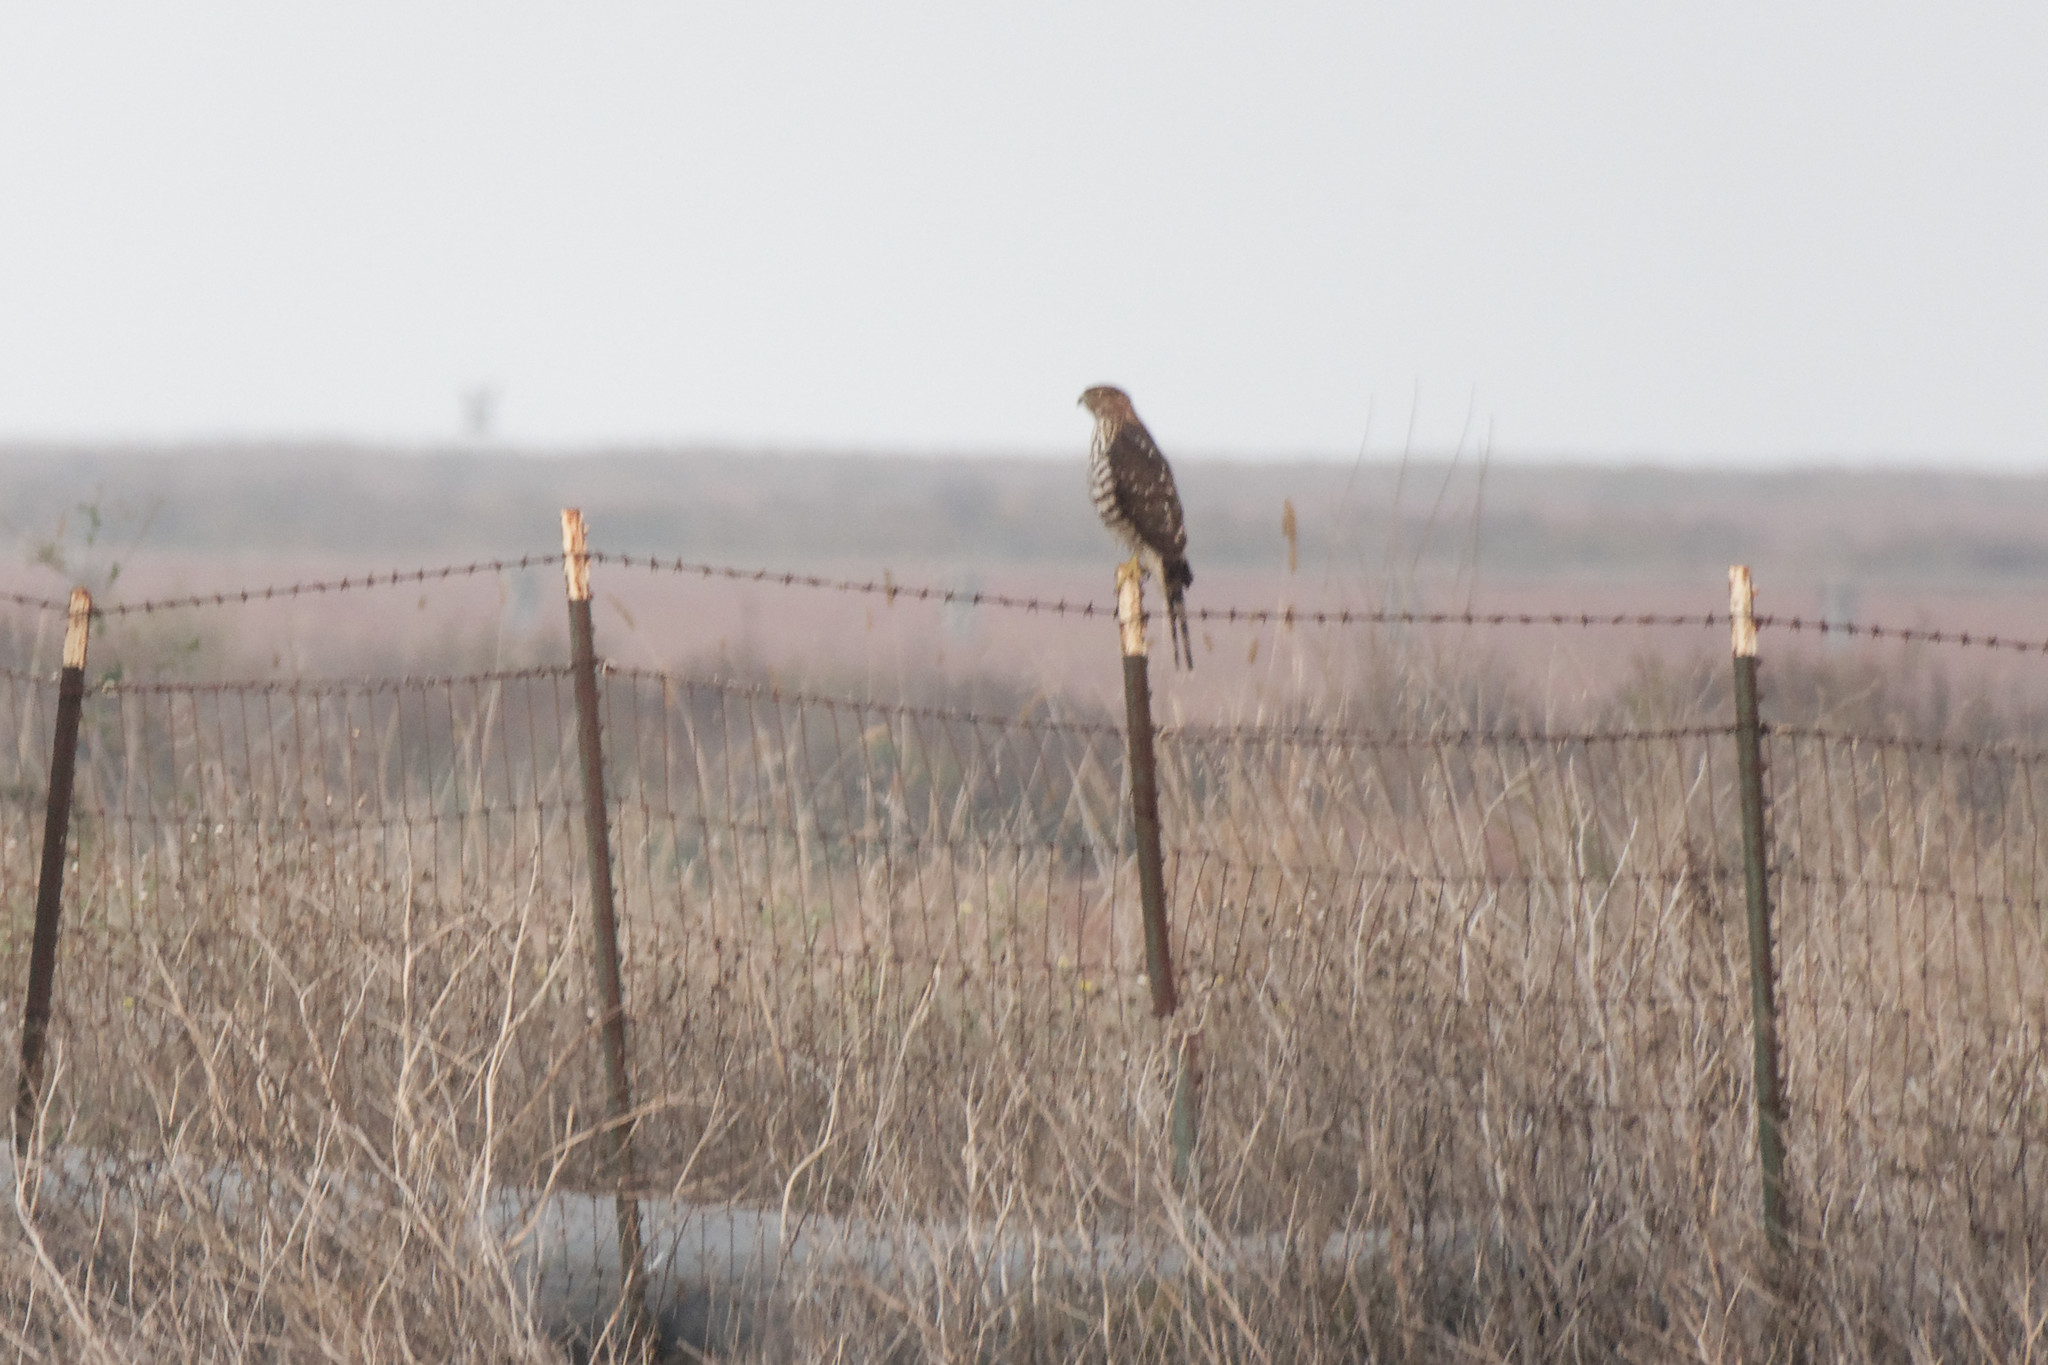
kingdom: Animalia
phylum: Chordata
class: Aves
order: Accipitriformes
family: Accipitridae
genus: Accipiter
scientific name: Accipiter cooperii
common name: Cooper's hawk
